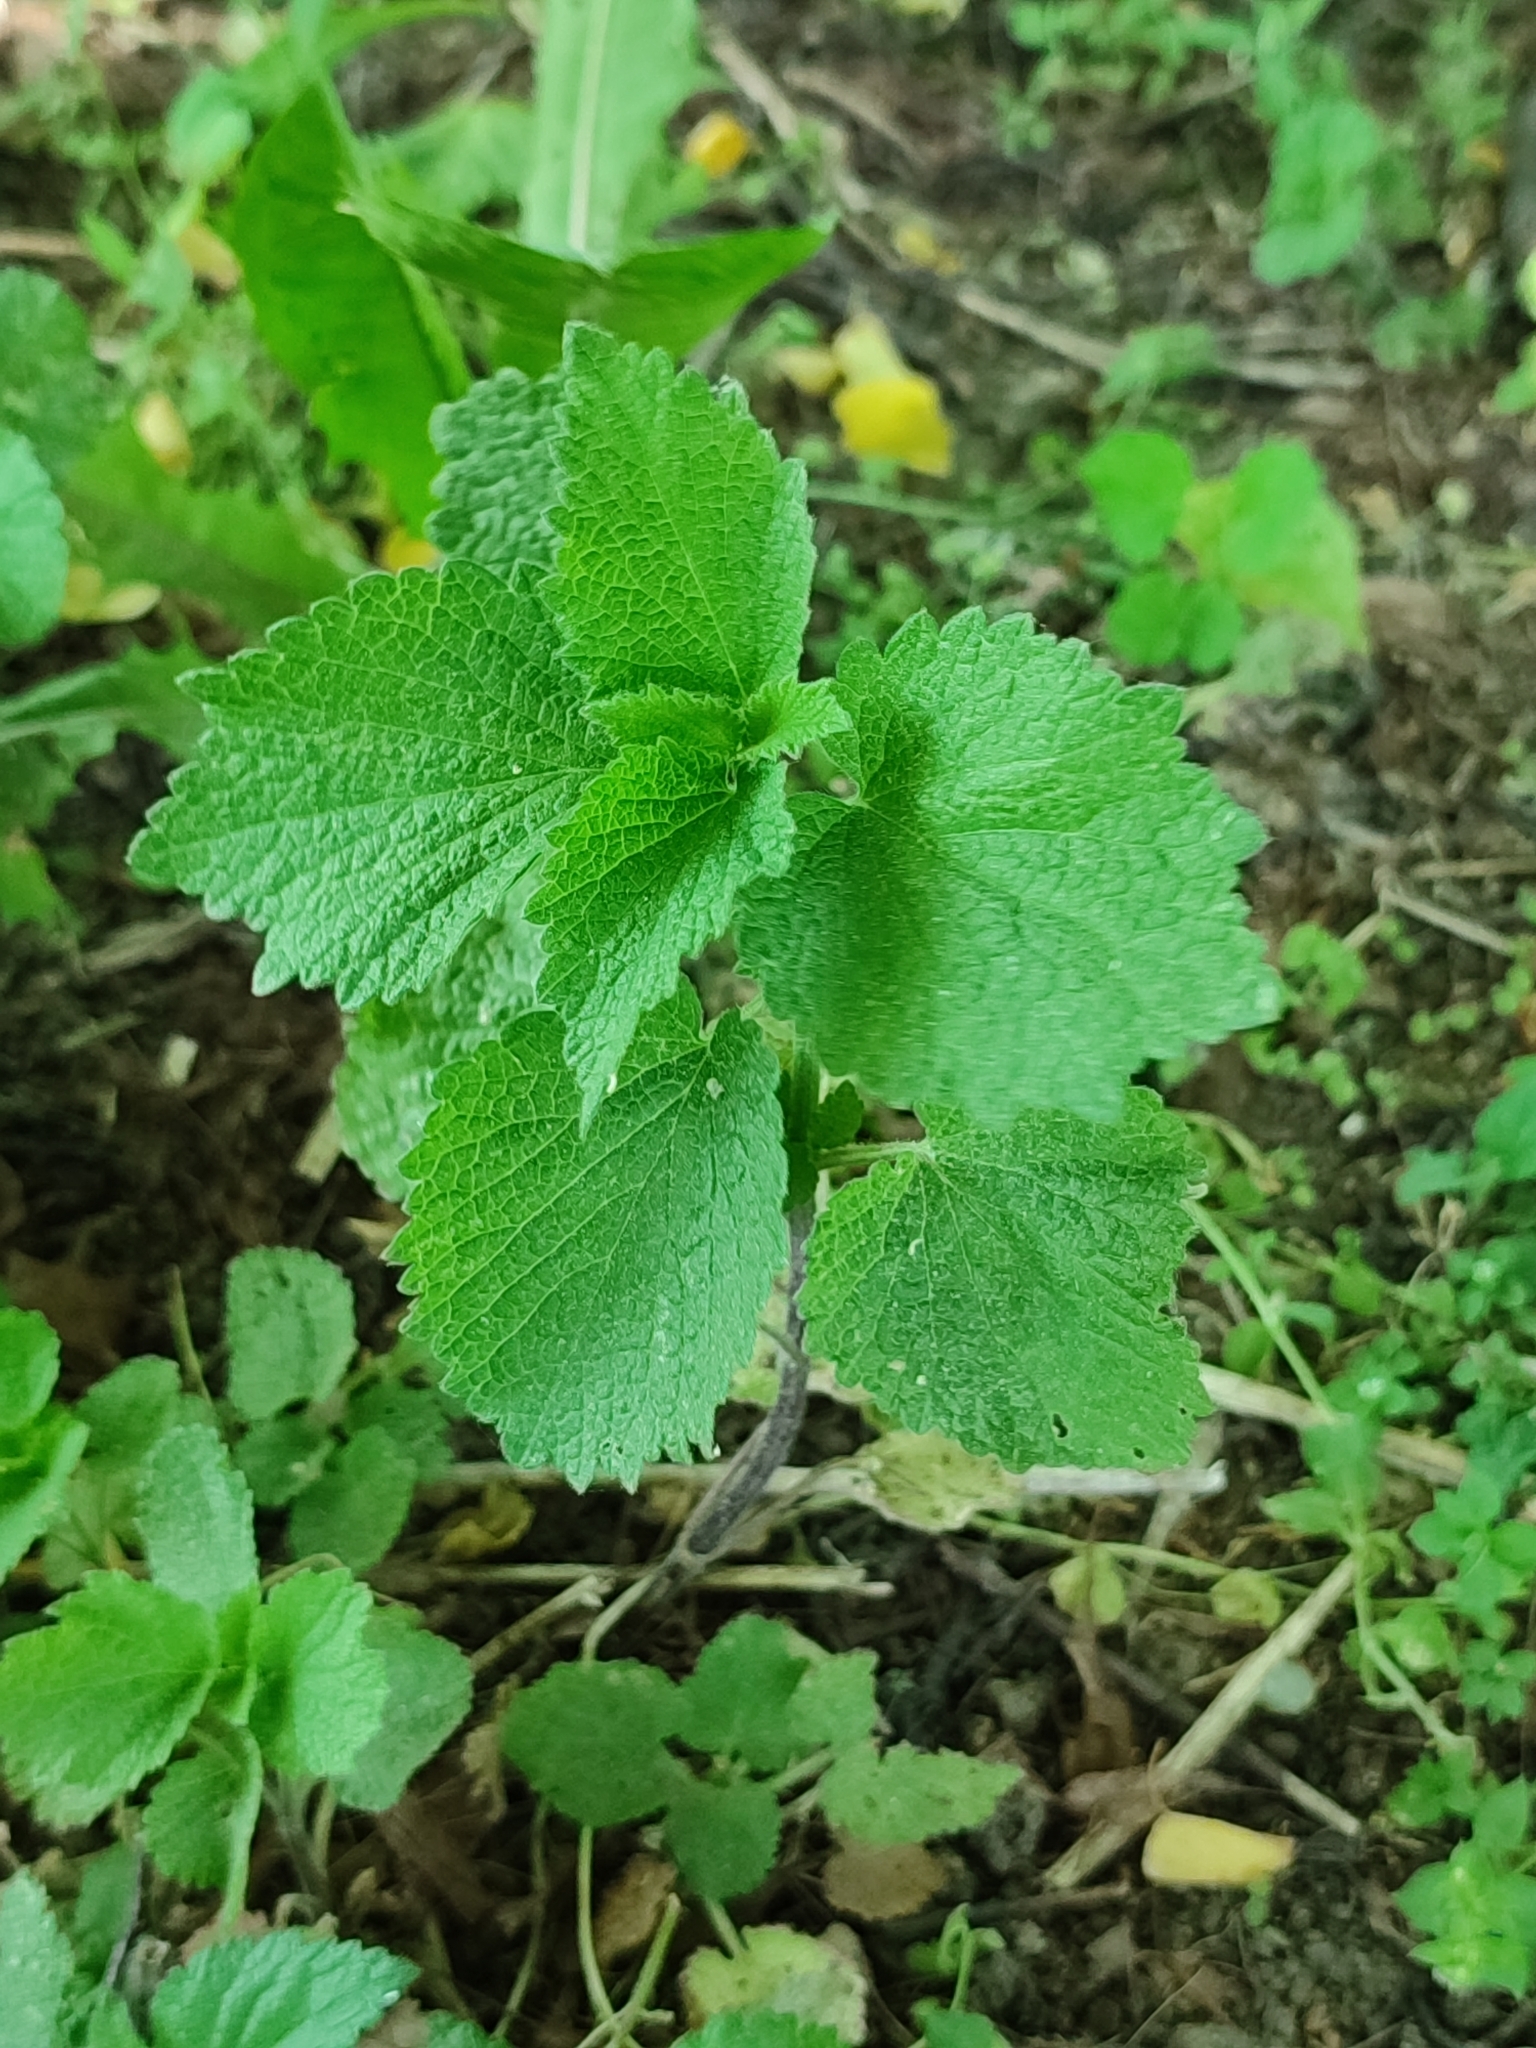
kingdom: Plantae
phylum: Tracheophyta
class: Magnoliopsida
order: Lamiales
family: Lamiaceae
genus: Ballota
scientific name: Ballota nigra
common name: Black horehound
